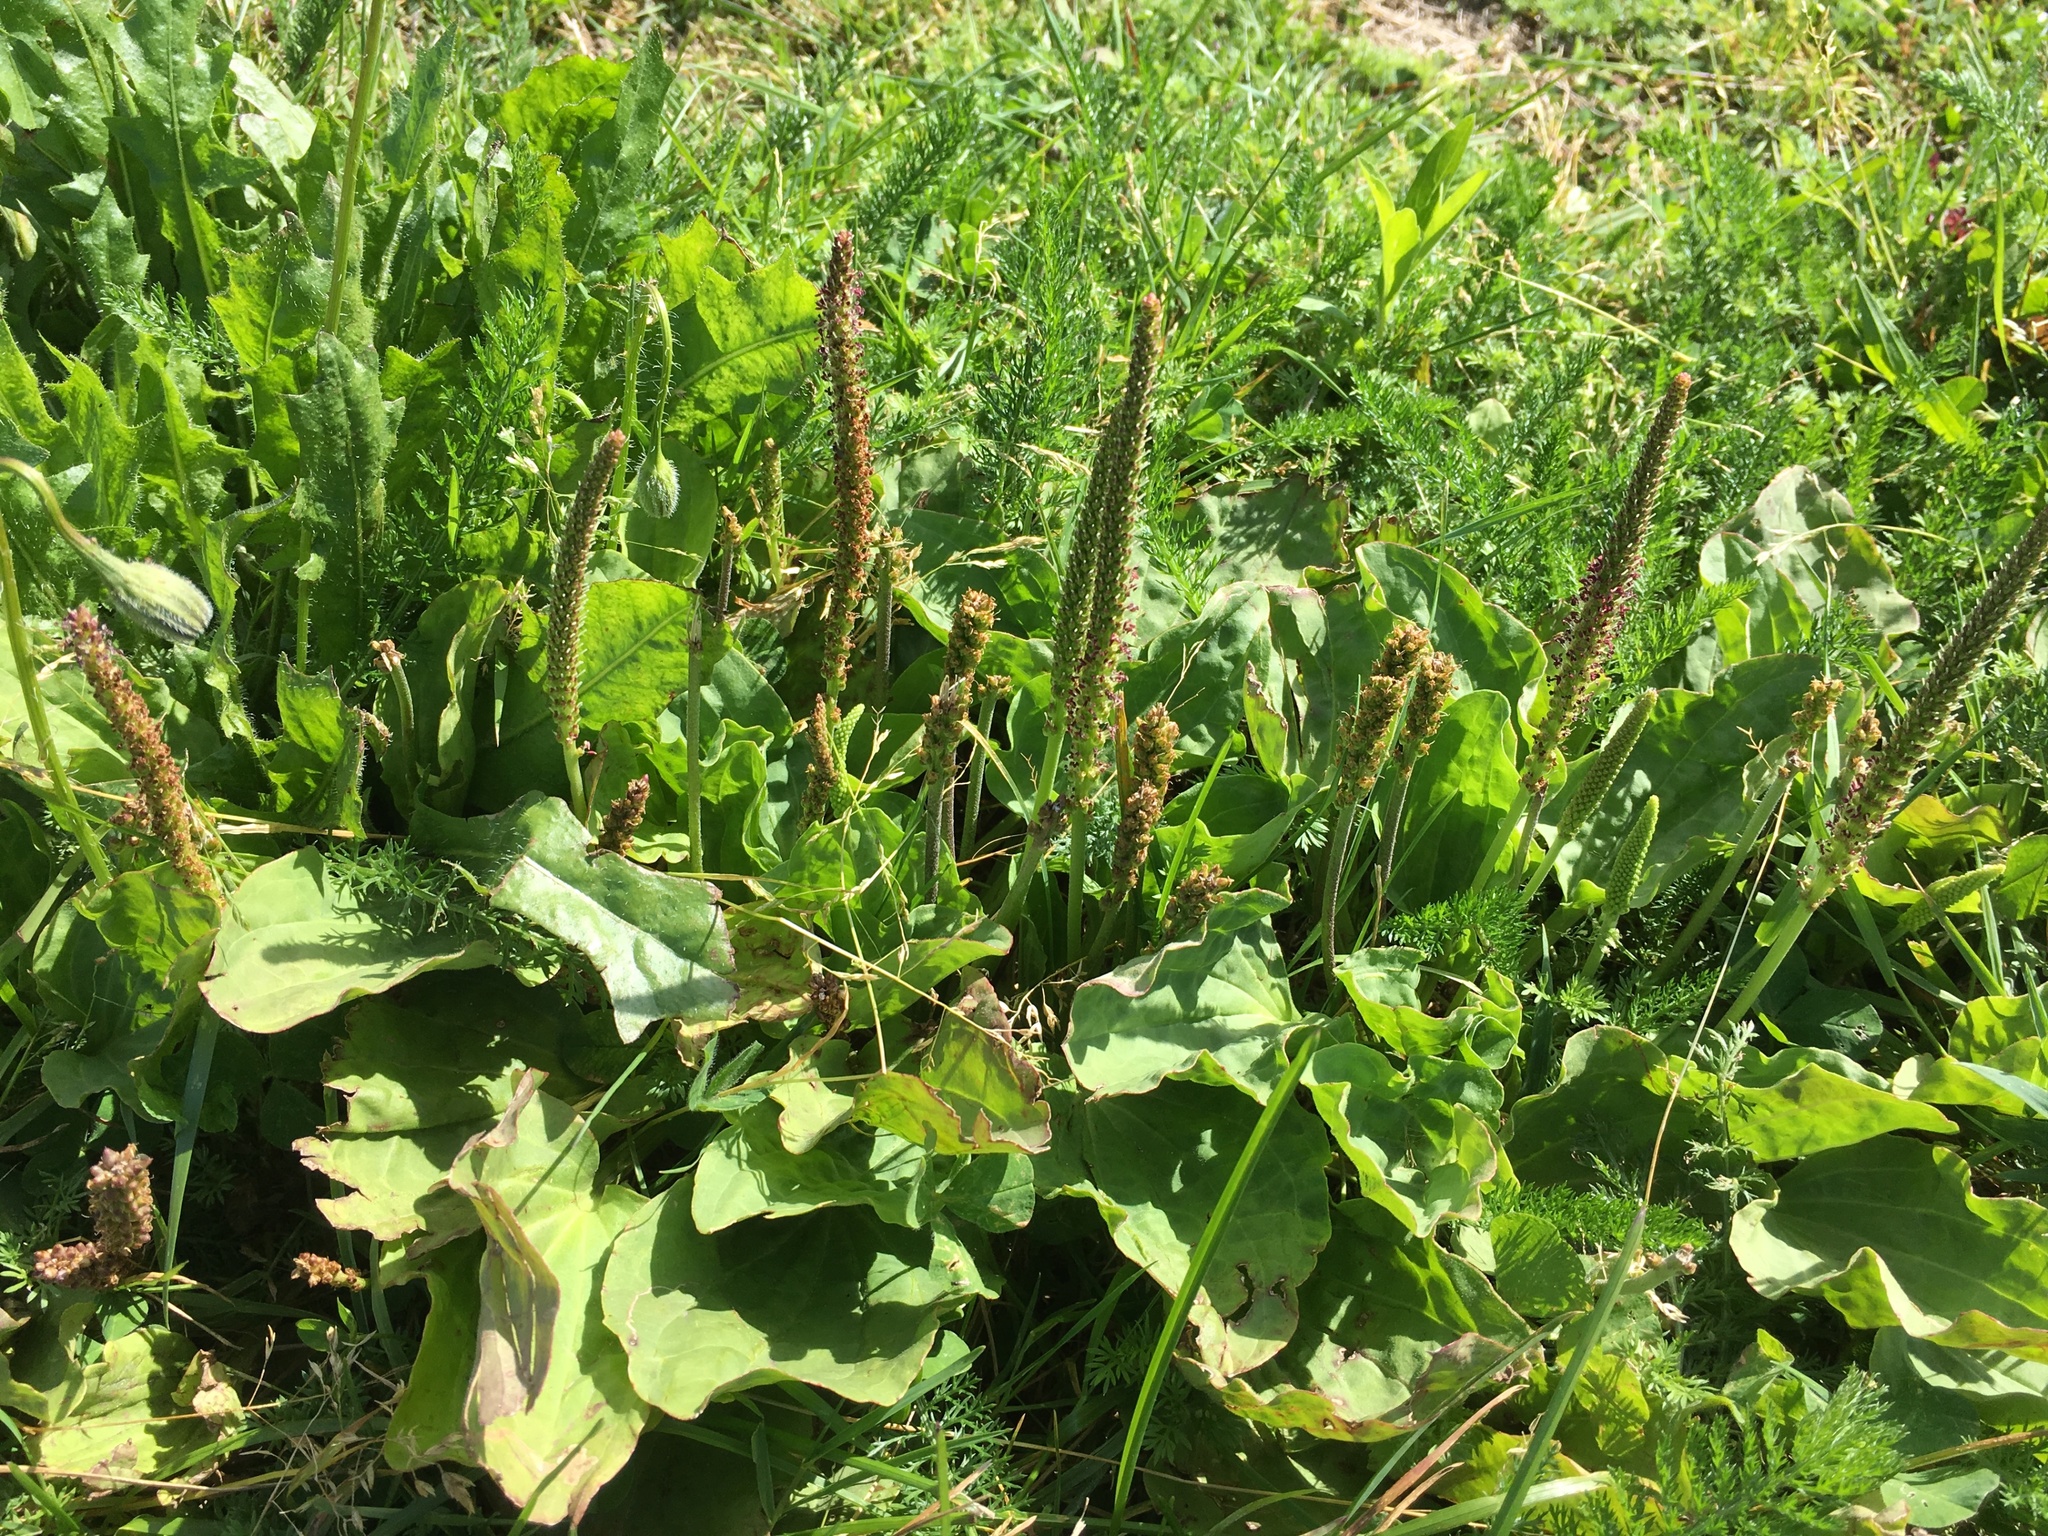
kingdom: Plantae
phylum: Tracheophyta
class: Magnoliopsida
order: Lamiales
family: Plantaginaceae
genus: Plantago
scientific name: Plantago major
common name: Common plantain
